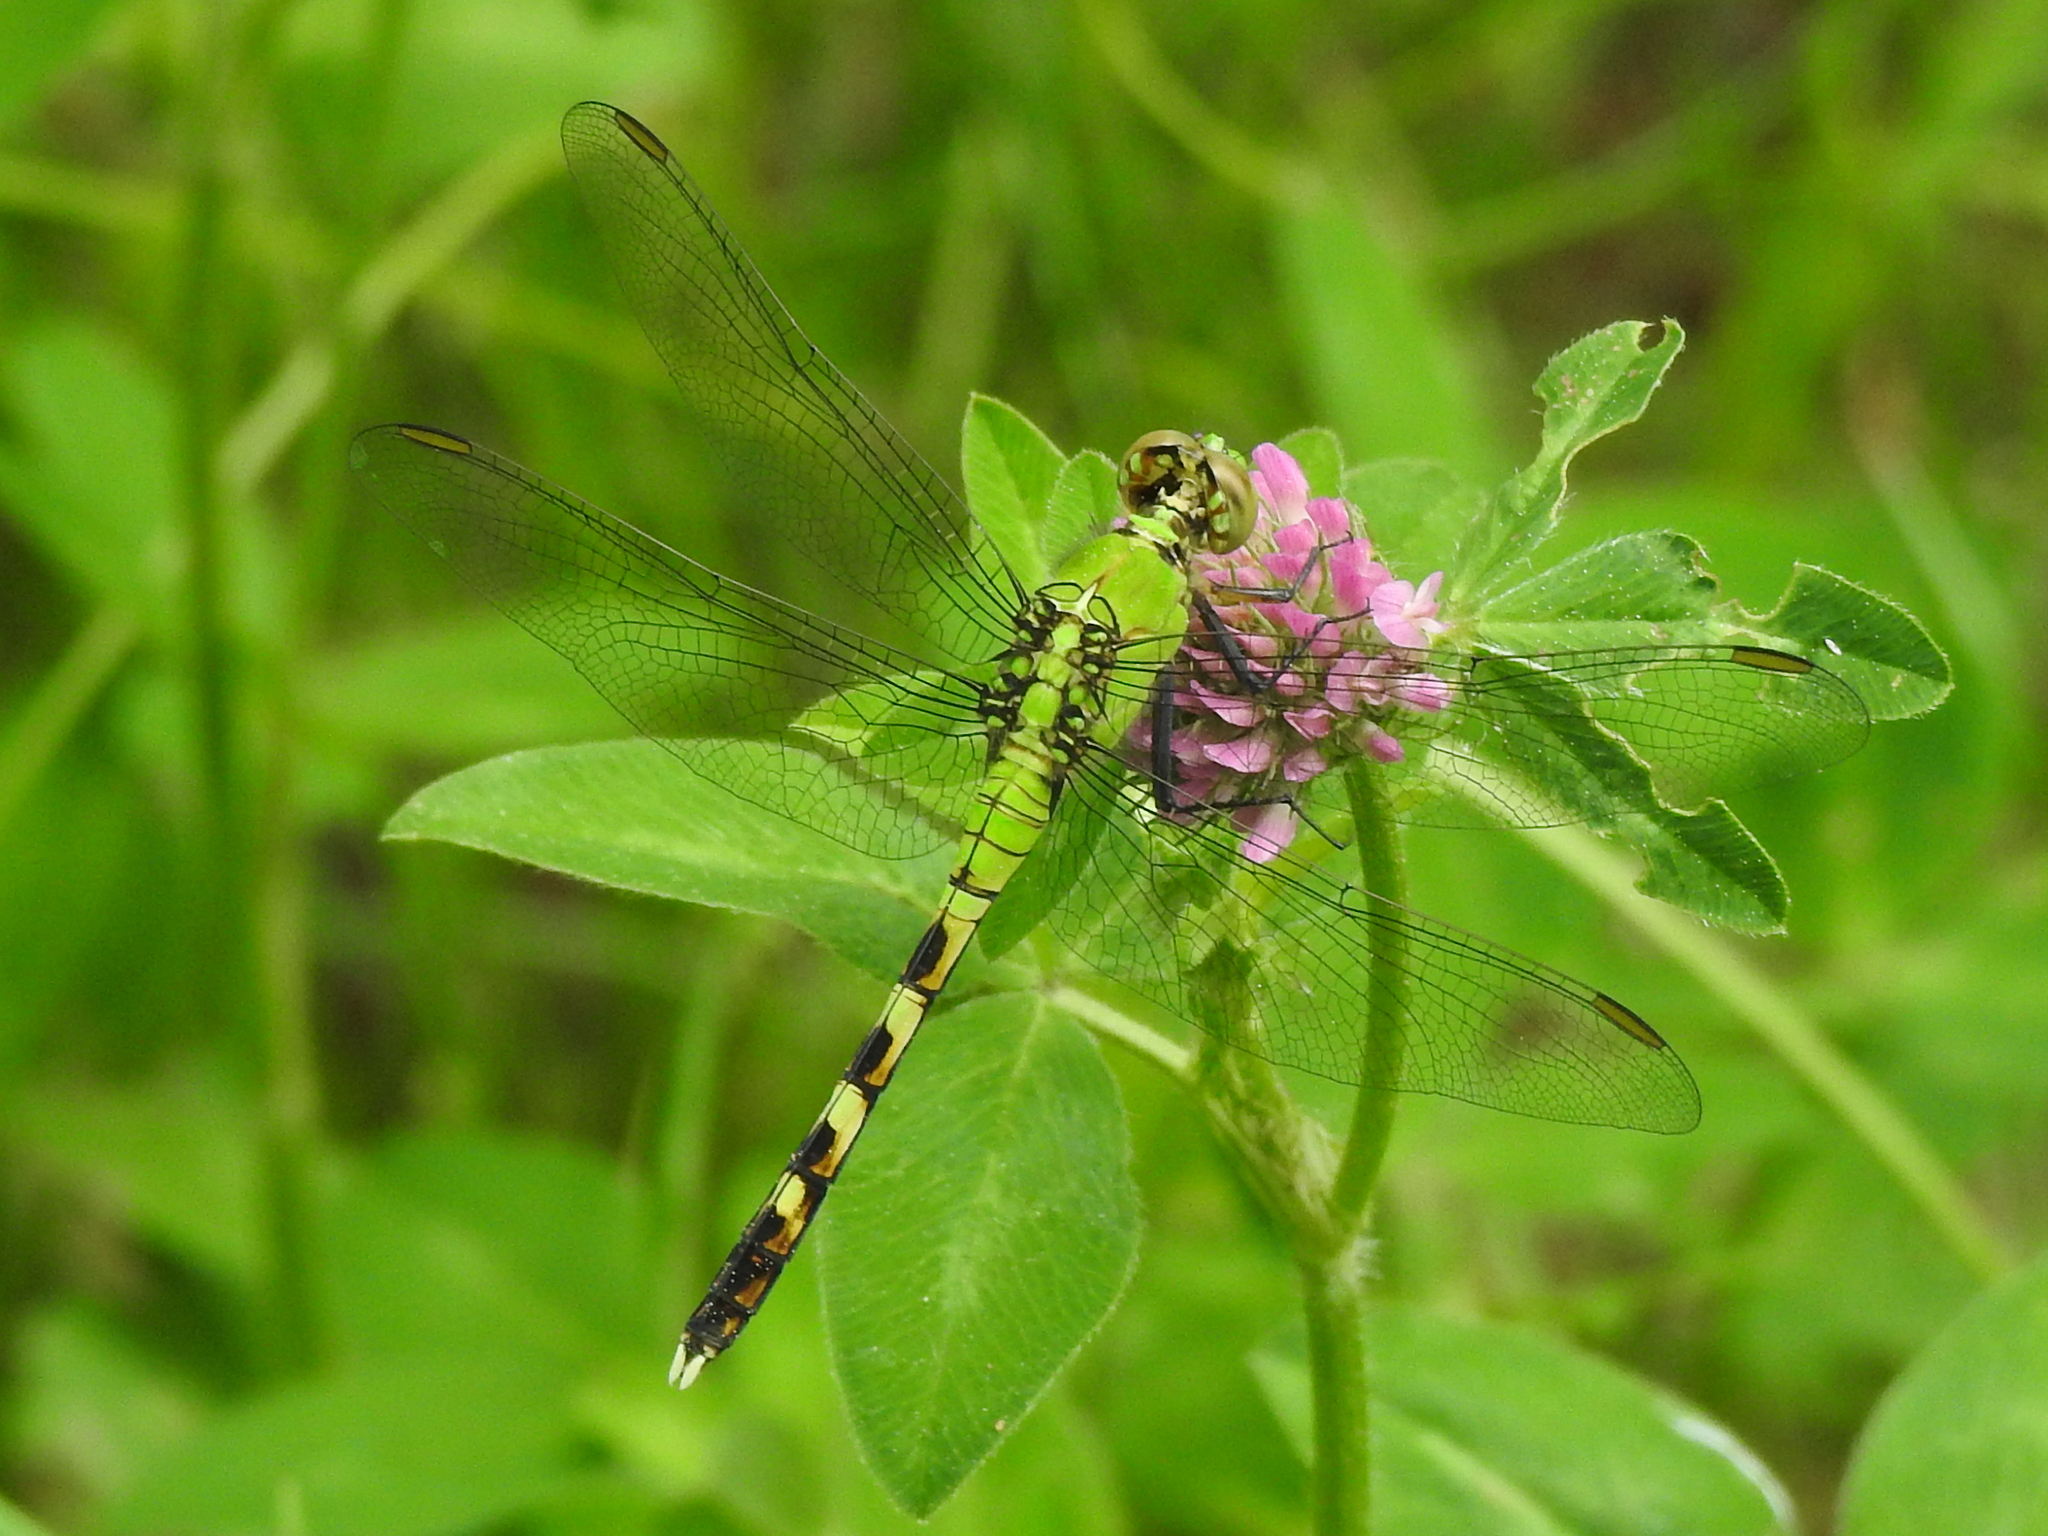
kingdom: Animalia
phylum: Arthropoda
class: Insecta
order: Odonata
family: Libellulidae
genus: Erythemis
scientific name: Erythemis simplicicollis
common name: Eastern pondhawk
